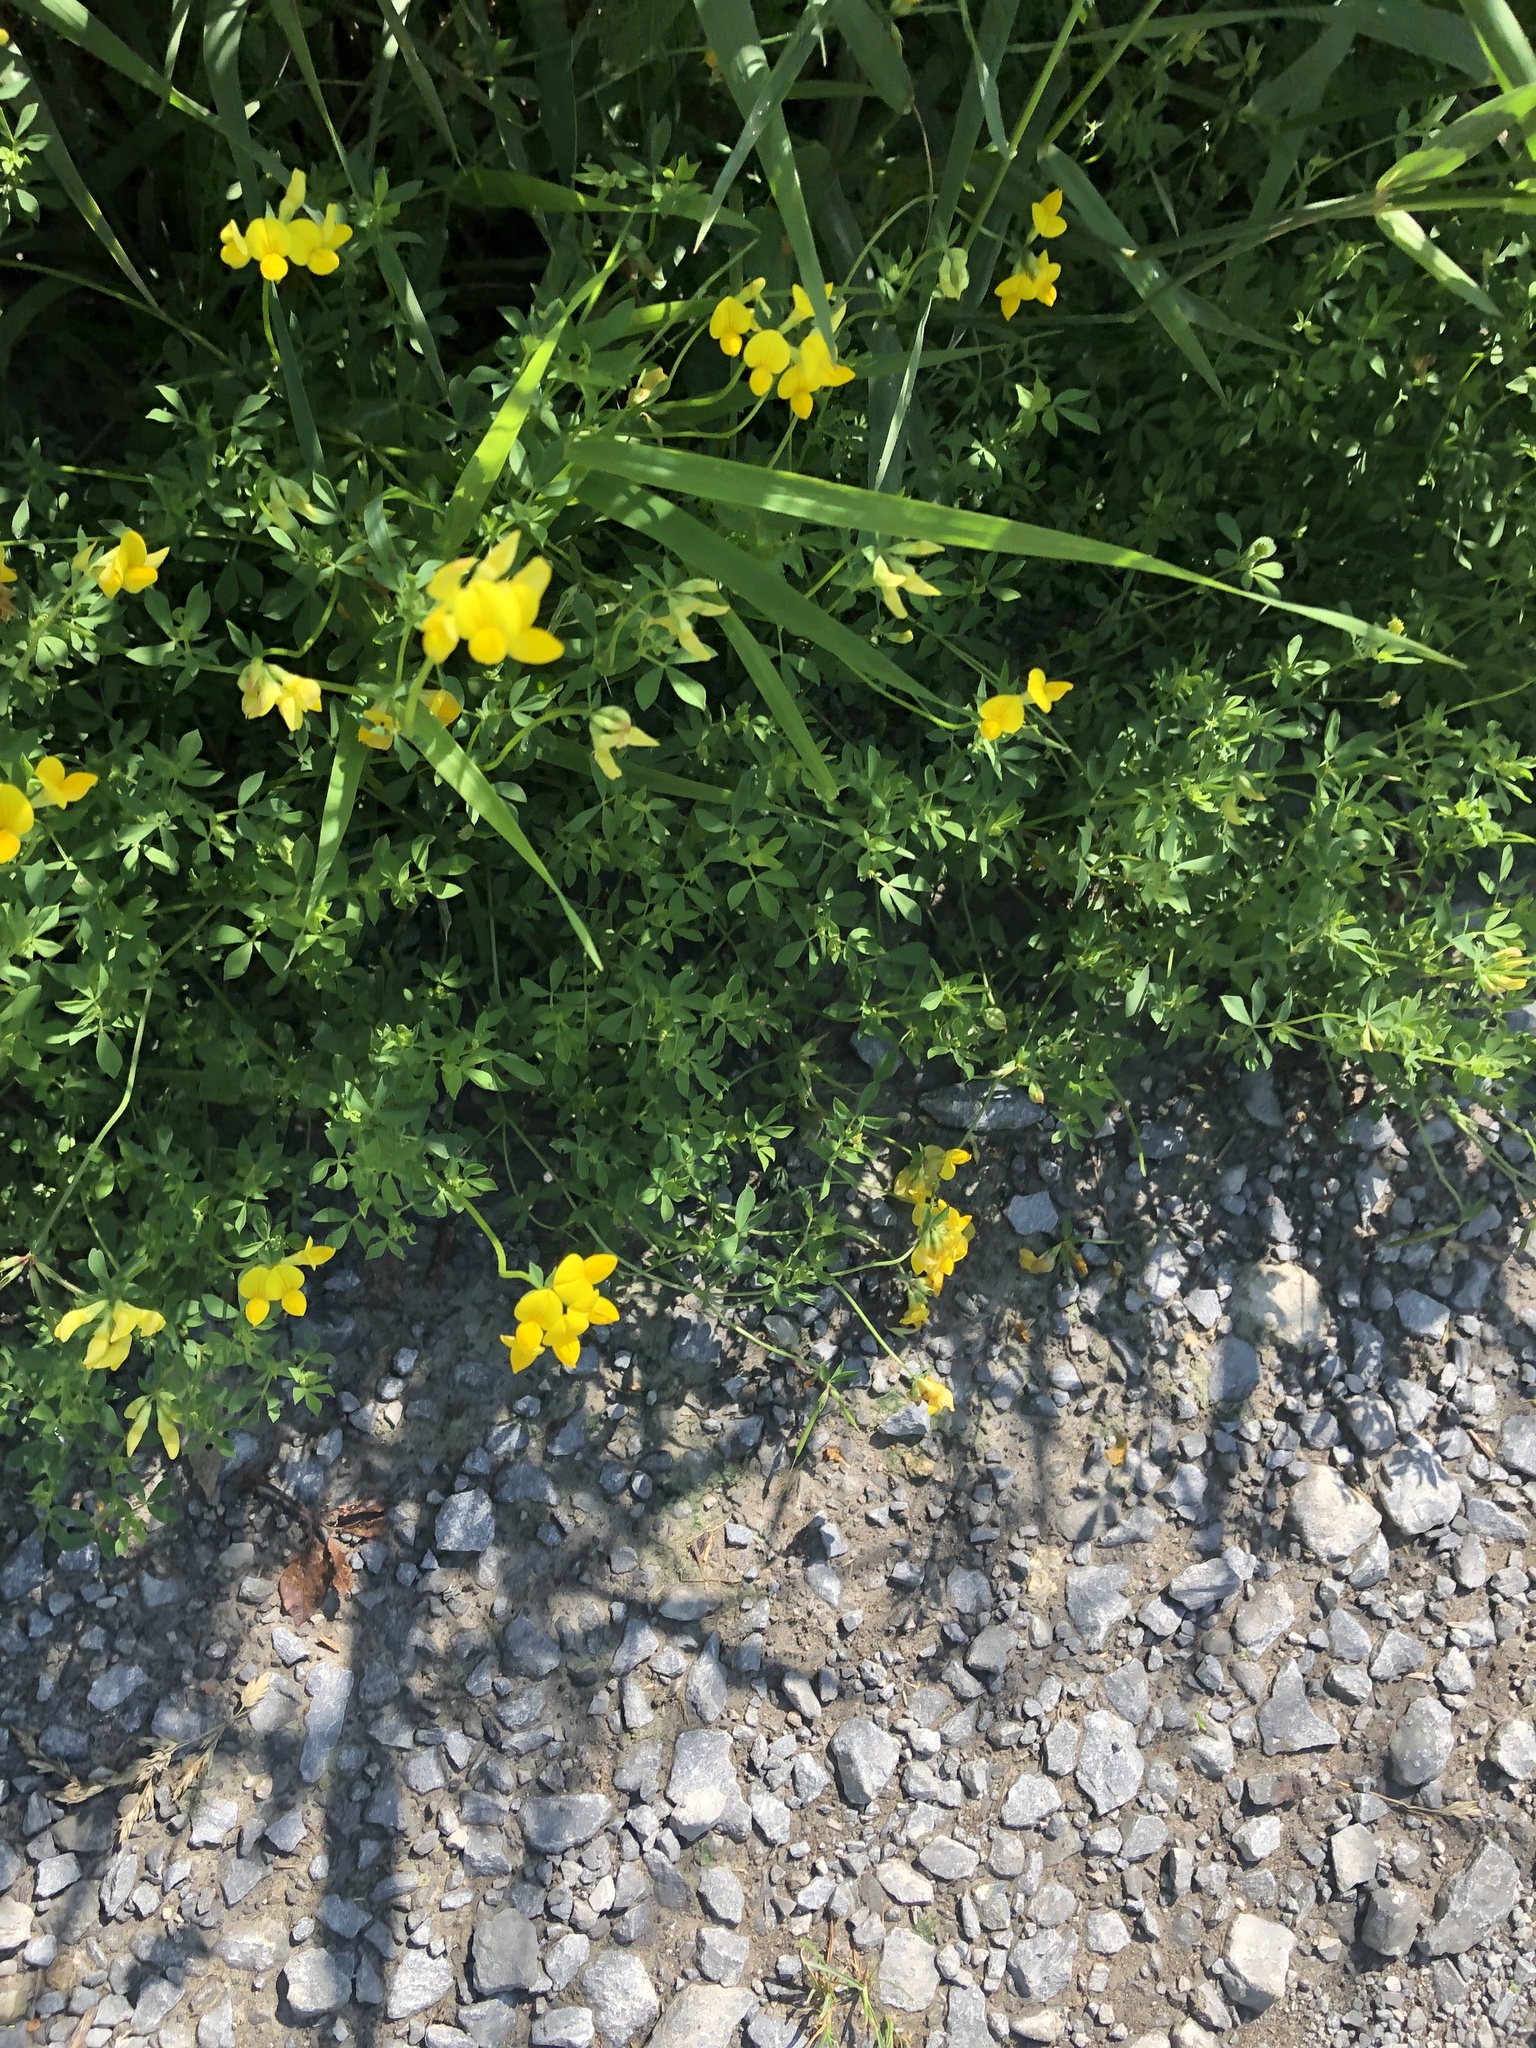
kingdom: Plantae
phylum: Tracheophyta
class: Magnoliopsida
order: Fabales
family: Fabaceae
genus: Lotus
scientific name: Lotus corniculatus
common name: Common bird's-foot-trefoil
